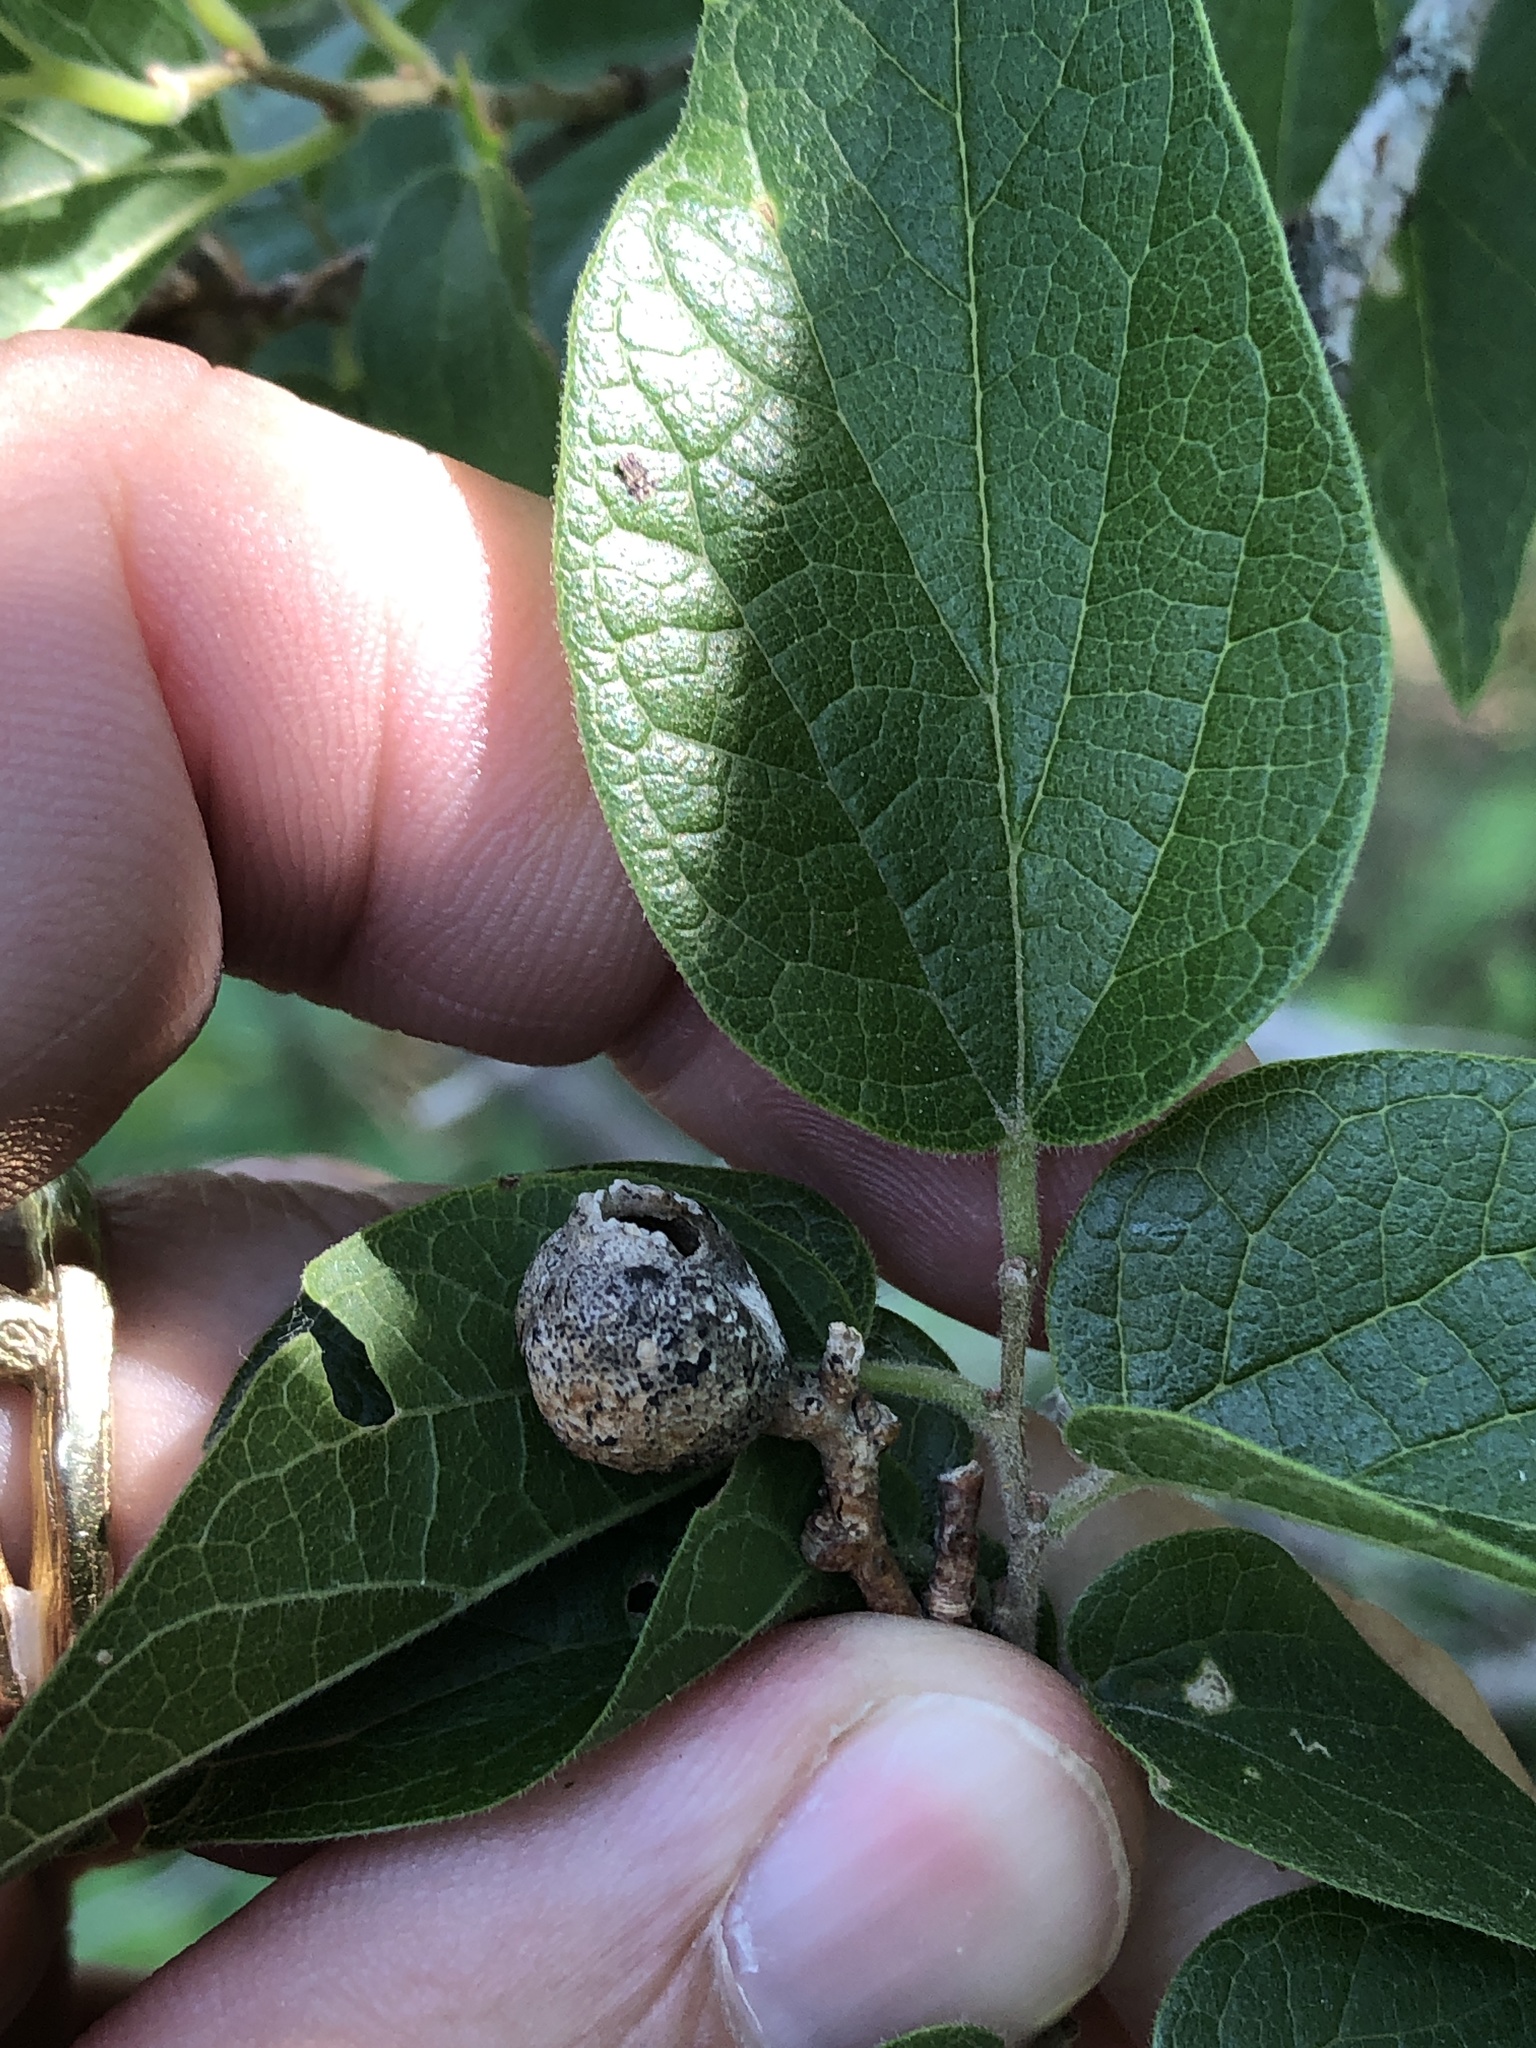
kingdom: Animalia
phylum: Arthropoda
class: Insecta
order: Hemiptera
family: Aphalaridae
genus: Pachypsylla
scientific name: Pachypsylla venusta
